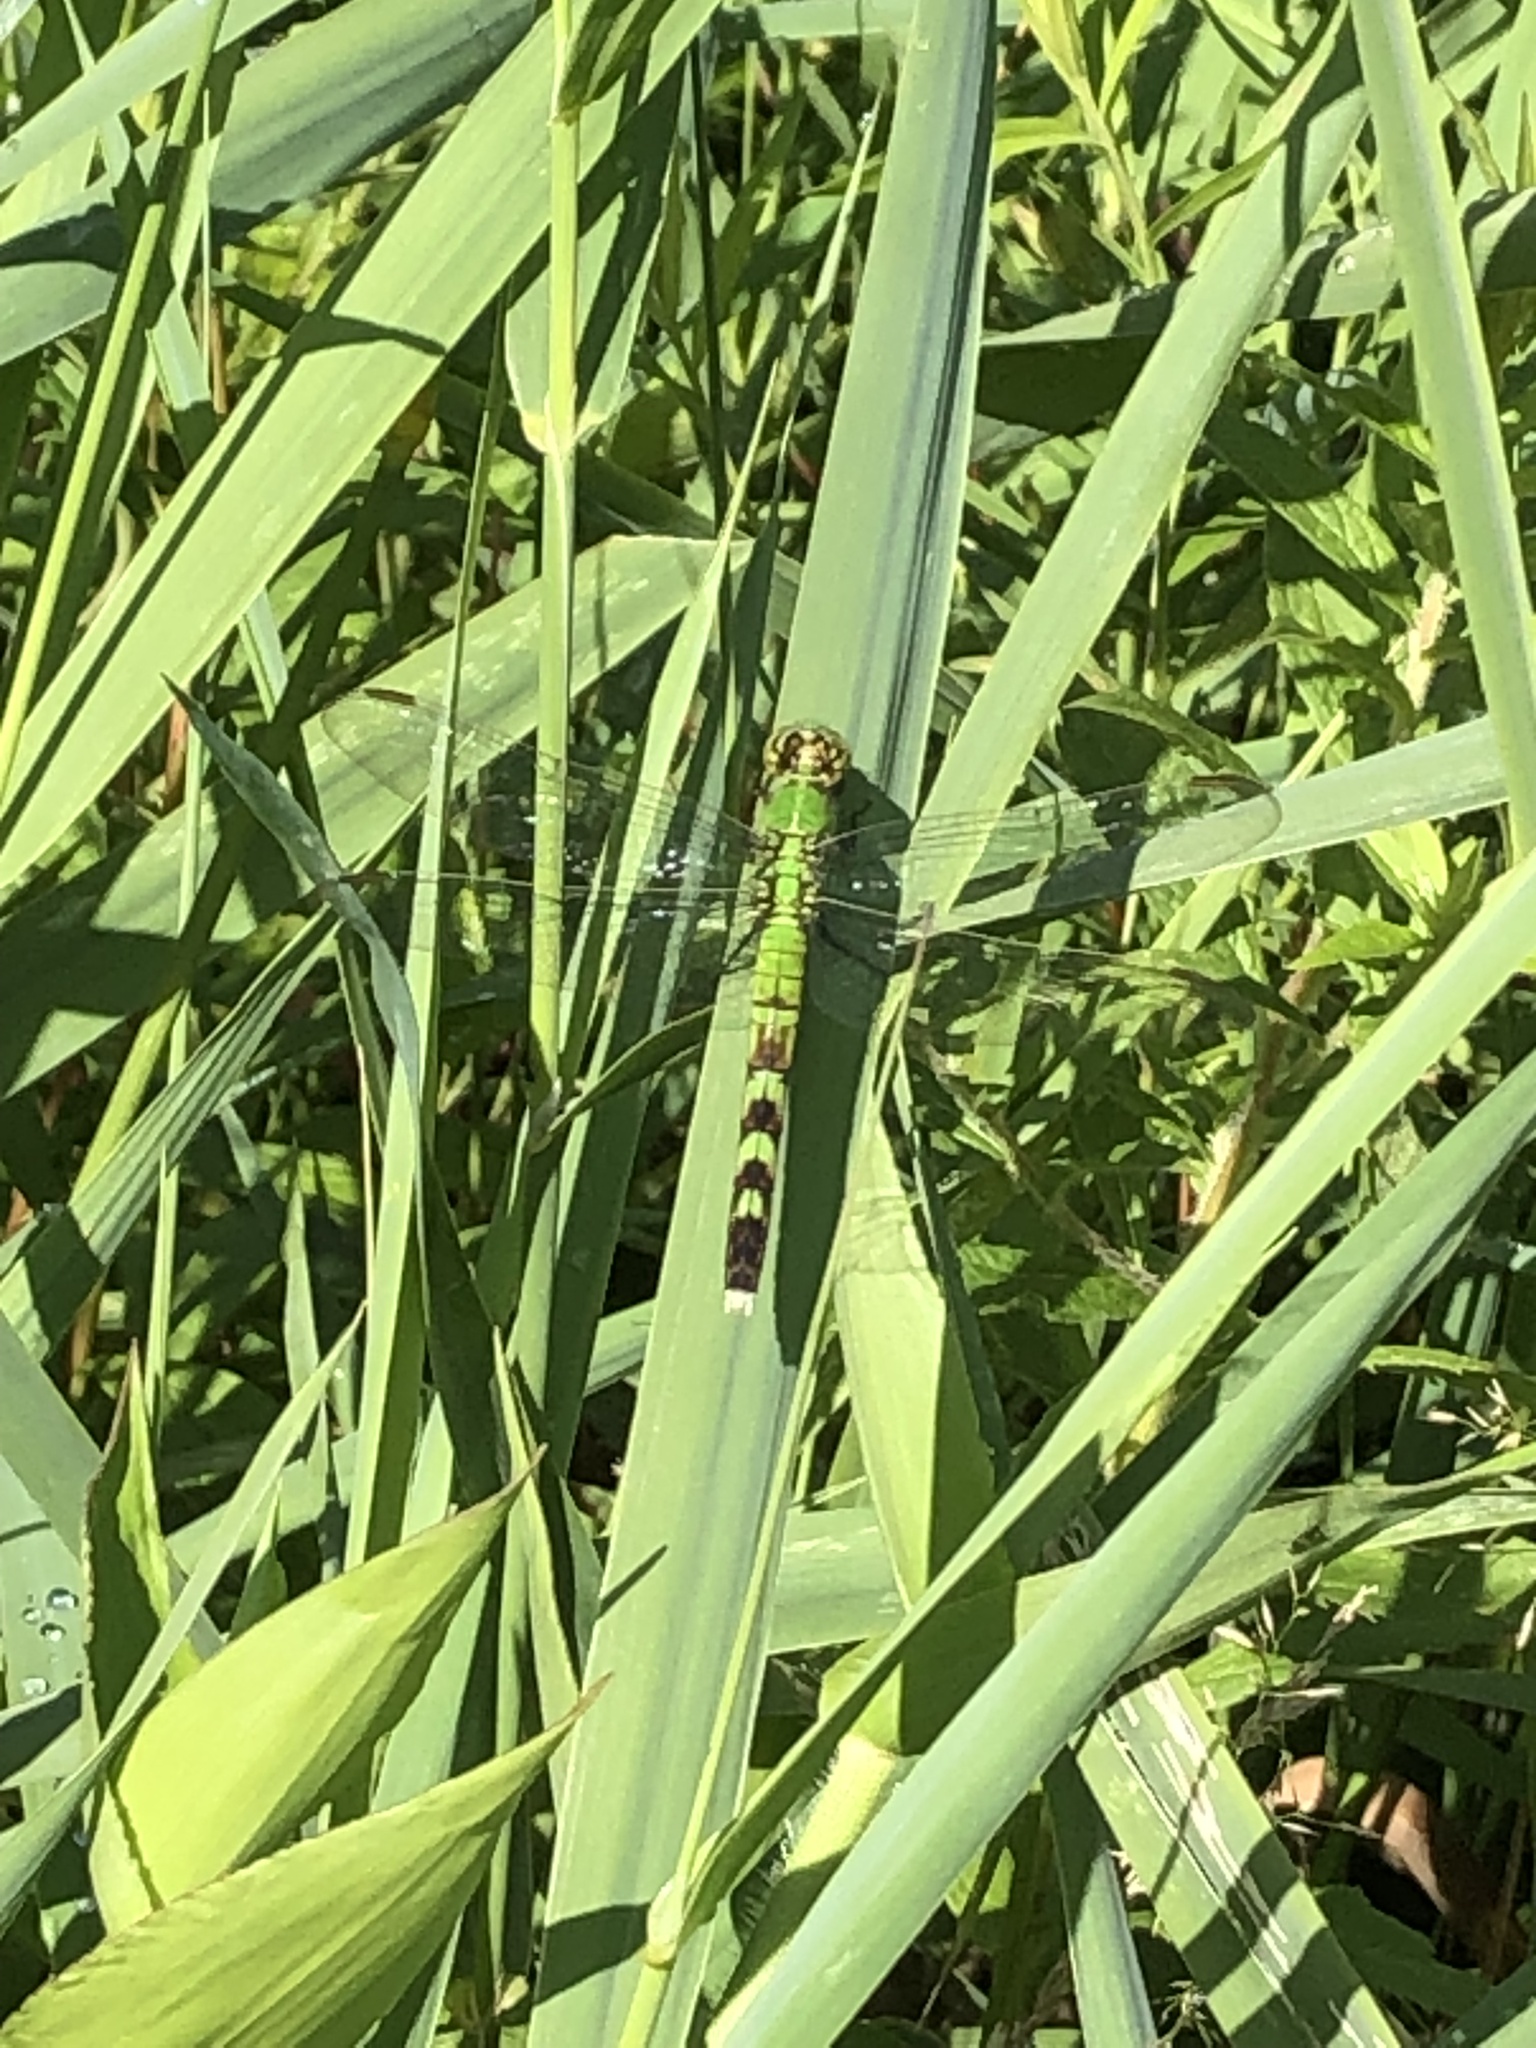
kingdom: Animalia
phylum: Arthropoda
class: Insecta
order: Odonata
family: Libellulidae
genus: Erythemis
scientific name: Erythemis simplicicollis
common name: Eastern pondhawk
